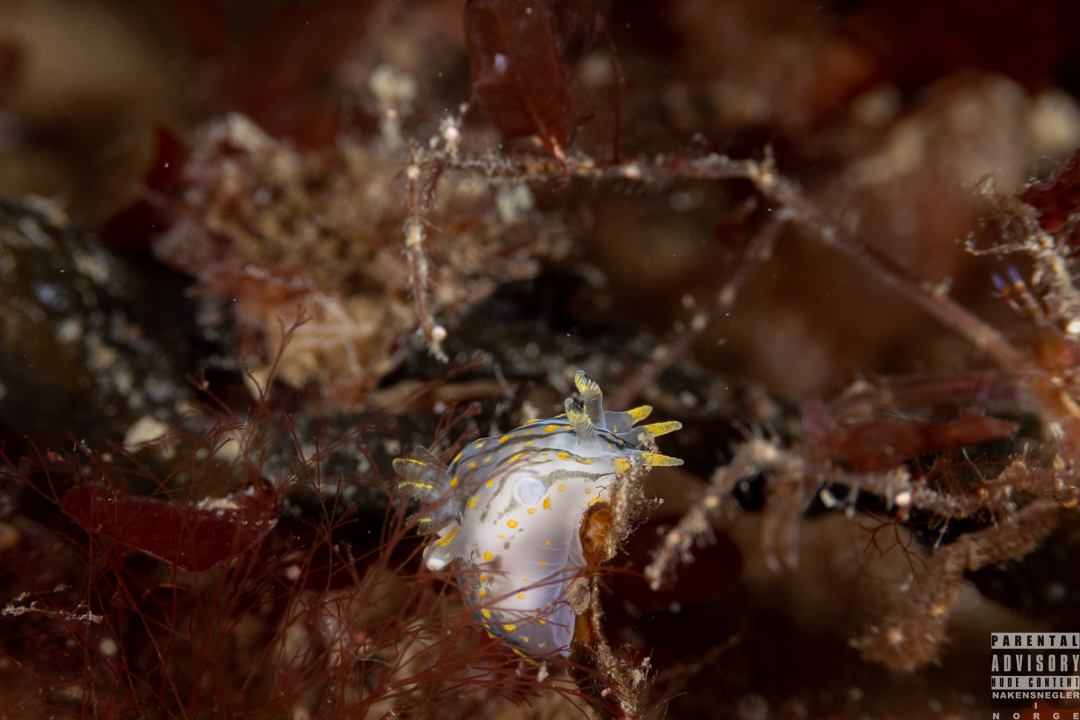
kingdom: Animalia
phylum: Mollusca
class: Gastropoda
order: Nudibranchia
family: Polyceridae
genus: Polycera
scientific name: Polycera quadrilineata
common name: Four-striped polycera
